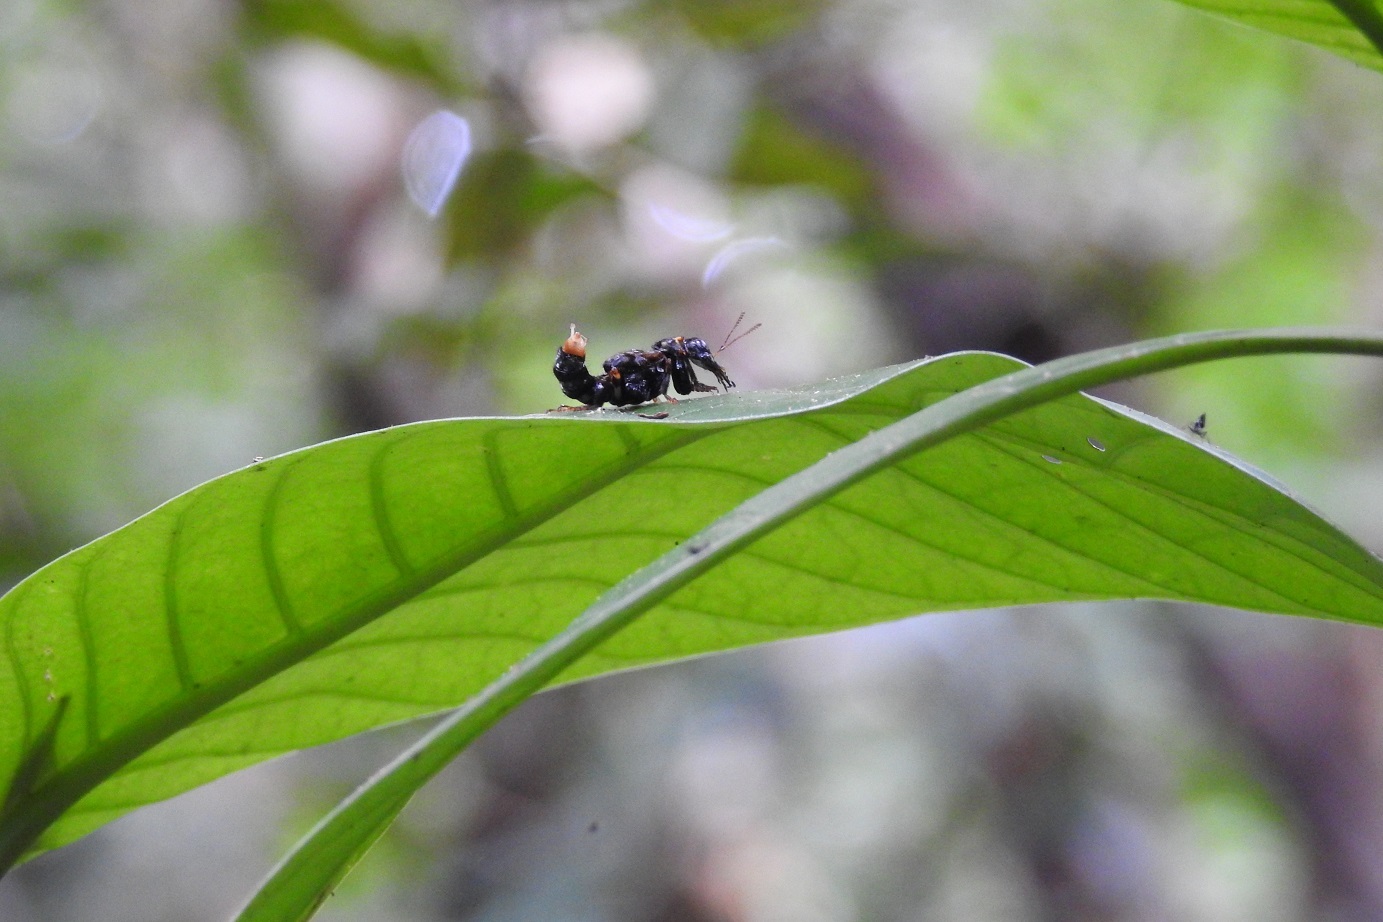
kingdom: Animalia
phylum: Arthropoda
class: Insecta
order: Coleoptera
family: Staphylinidae
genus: Leistotrophus
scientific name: Leistotrophus versicolor
